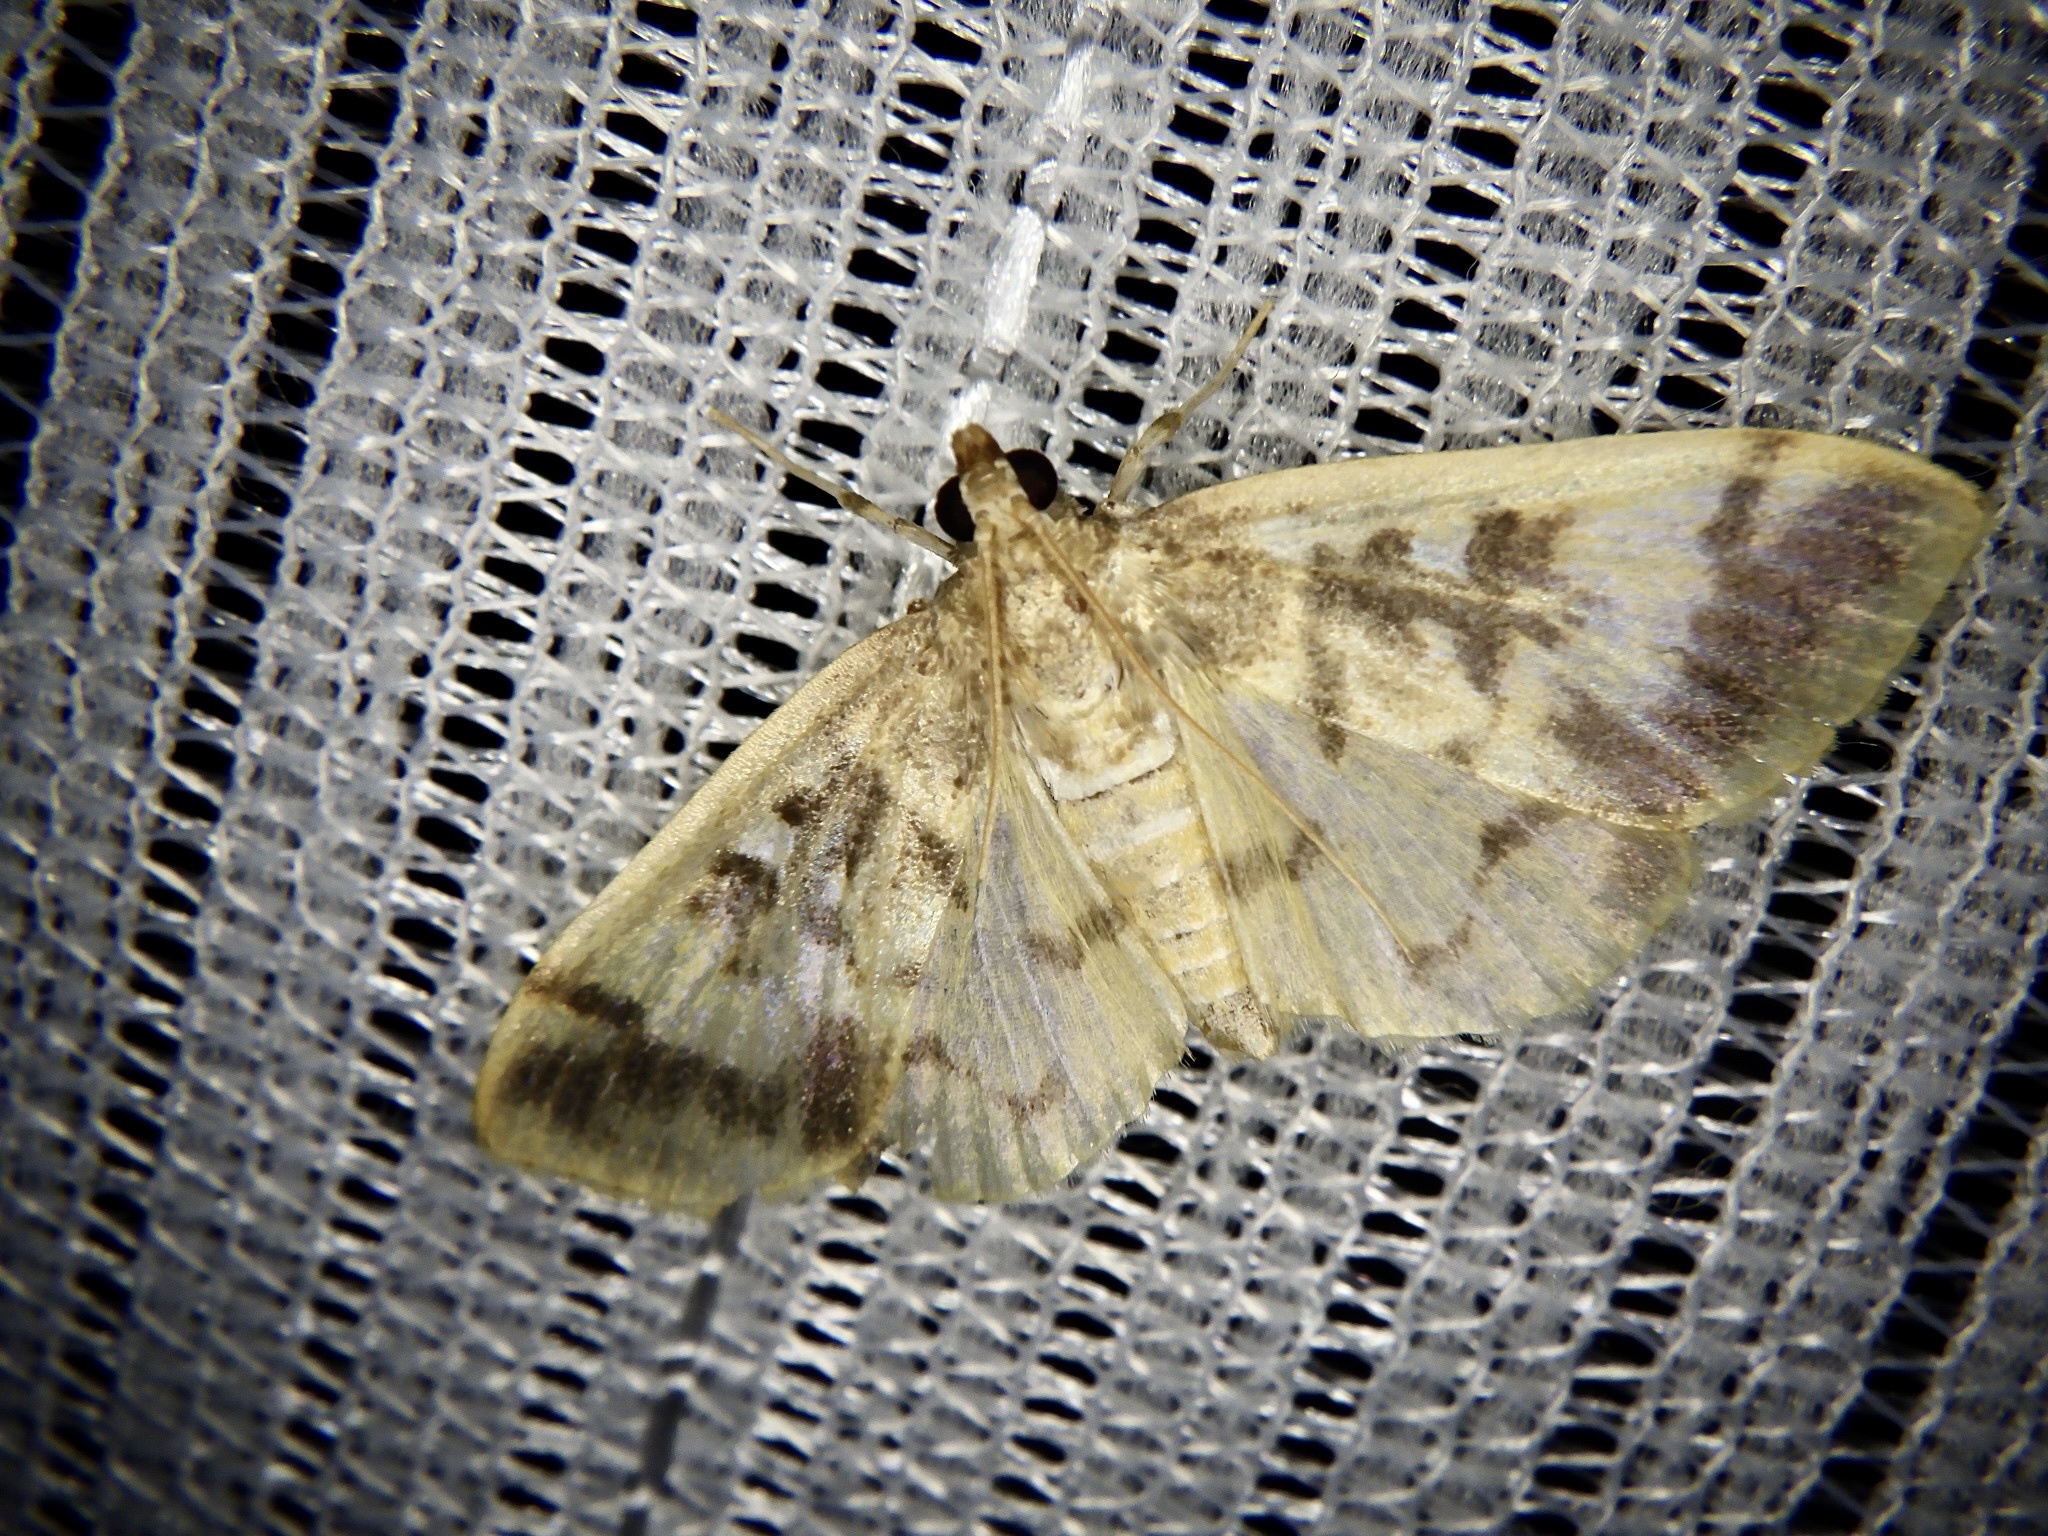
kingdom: Animalia
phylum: Arthropoda
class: Insecta
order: Lepidoptera
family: Crambidae
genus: Pseudebulea
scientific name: Pseudebulea fentoni
